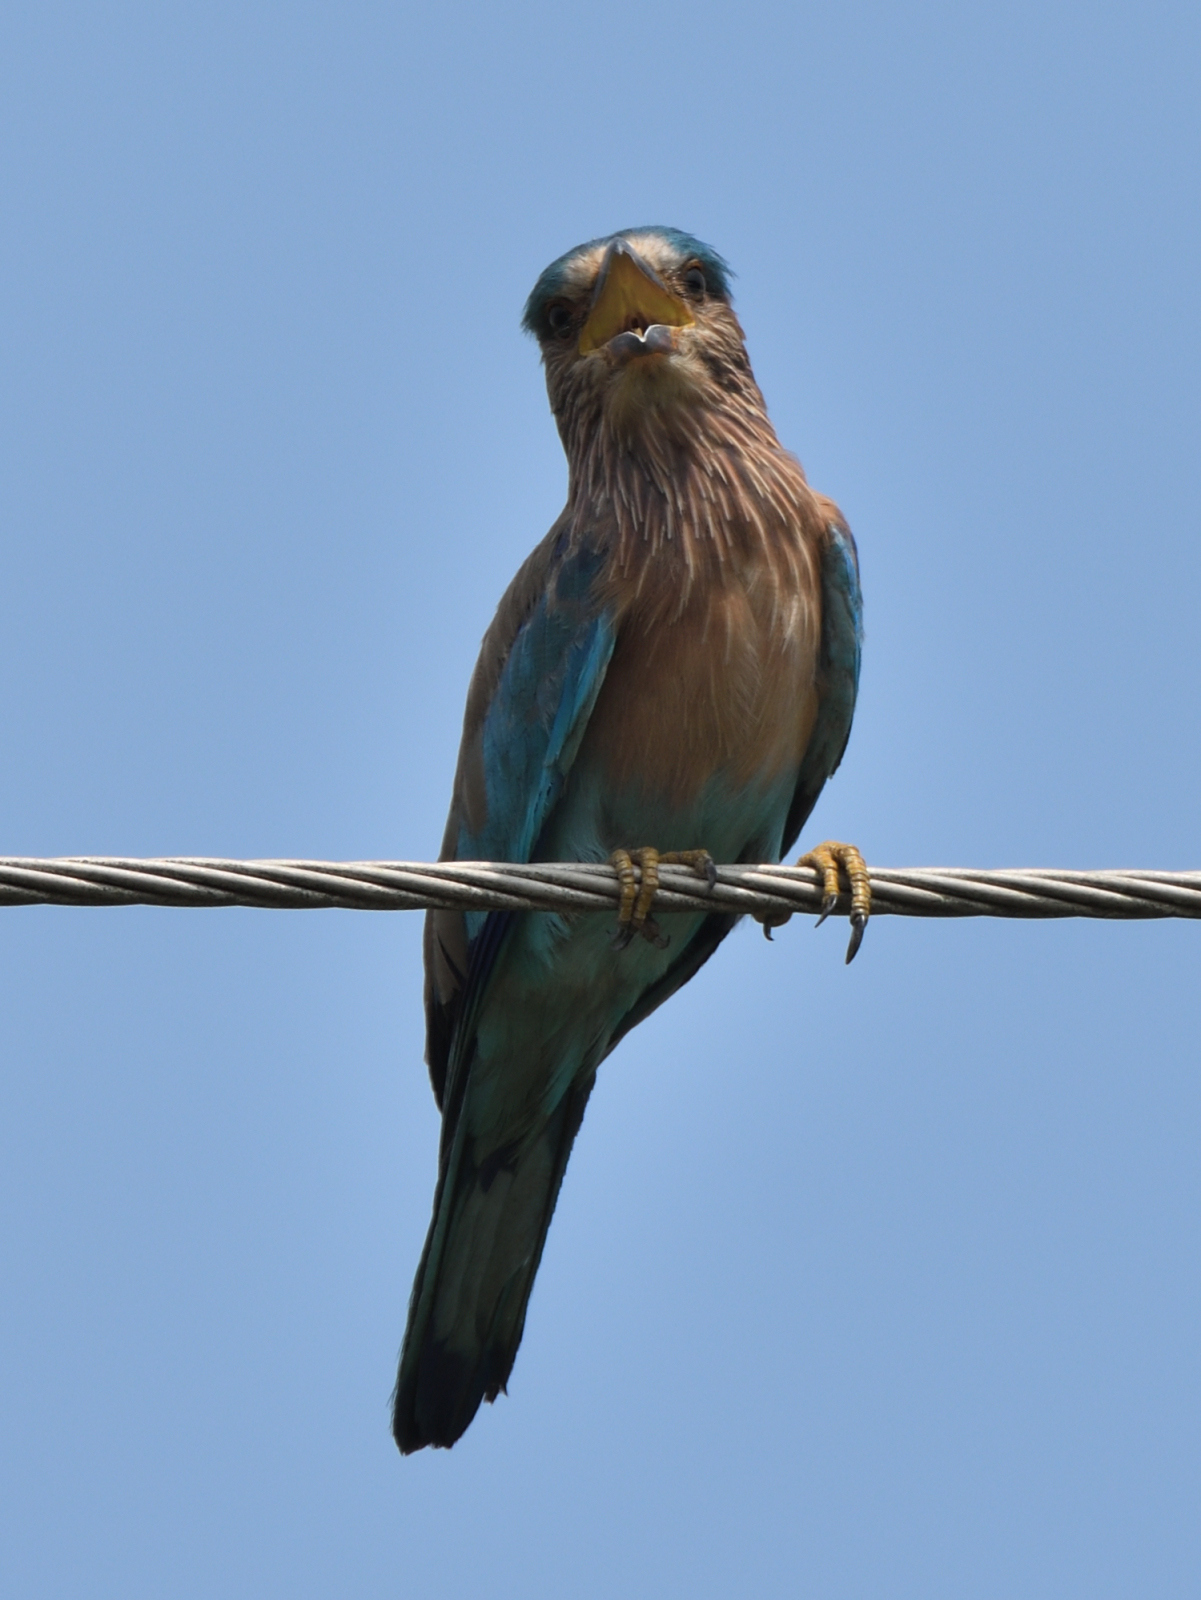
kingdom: Animalia
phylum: Chordata
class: Aves
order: Coraciiformes
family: Coraciidae
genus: Coracias
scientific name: Coracias benghalensis
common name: Indian roller
